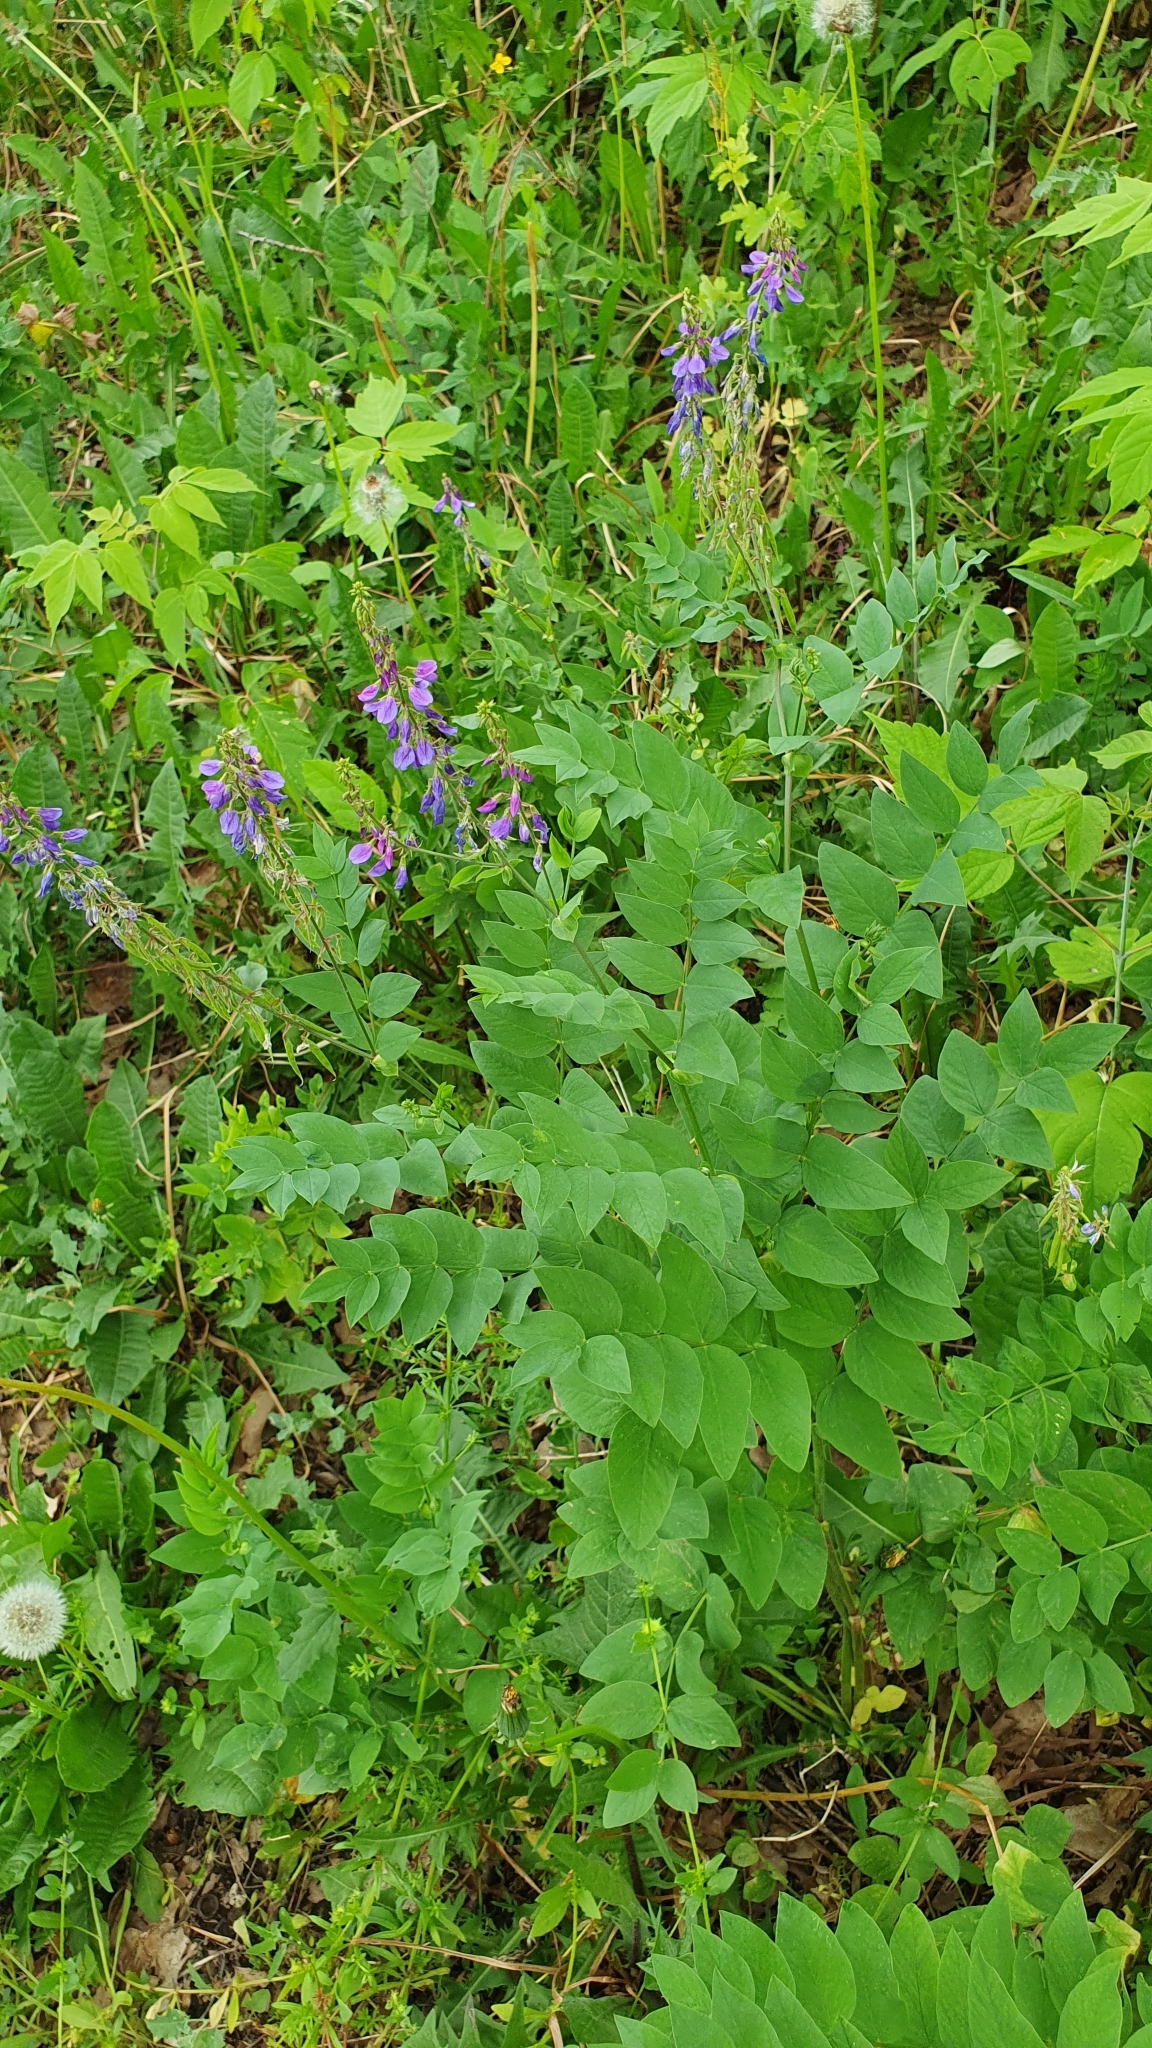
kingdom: Plantae
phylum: Tracheophyta
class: Magnoliopsida
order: Fabales
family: Fabaceae
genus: Galega
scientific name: Galega orientalis
